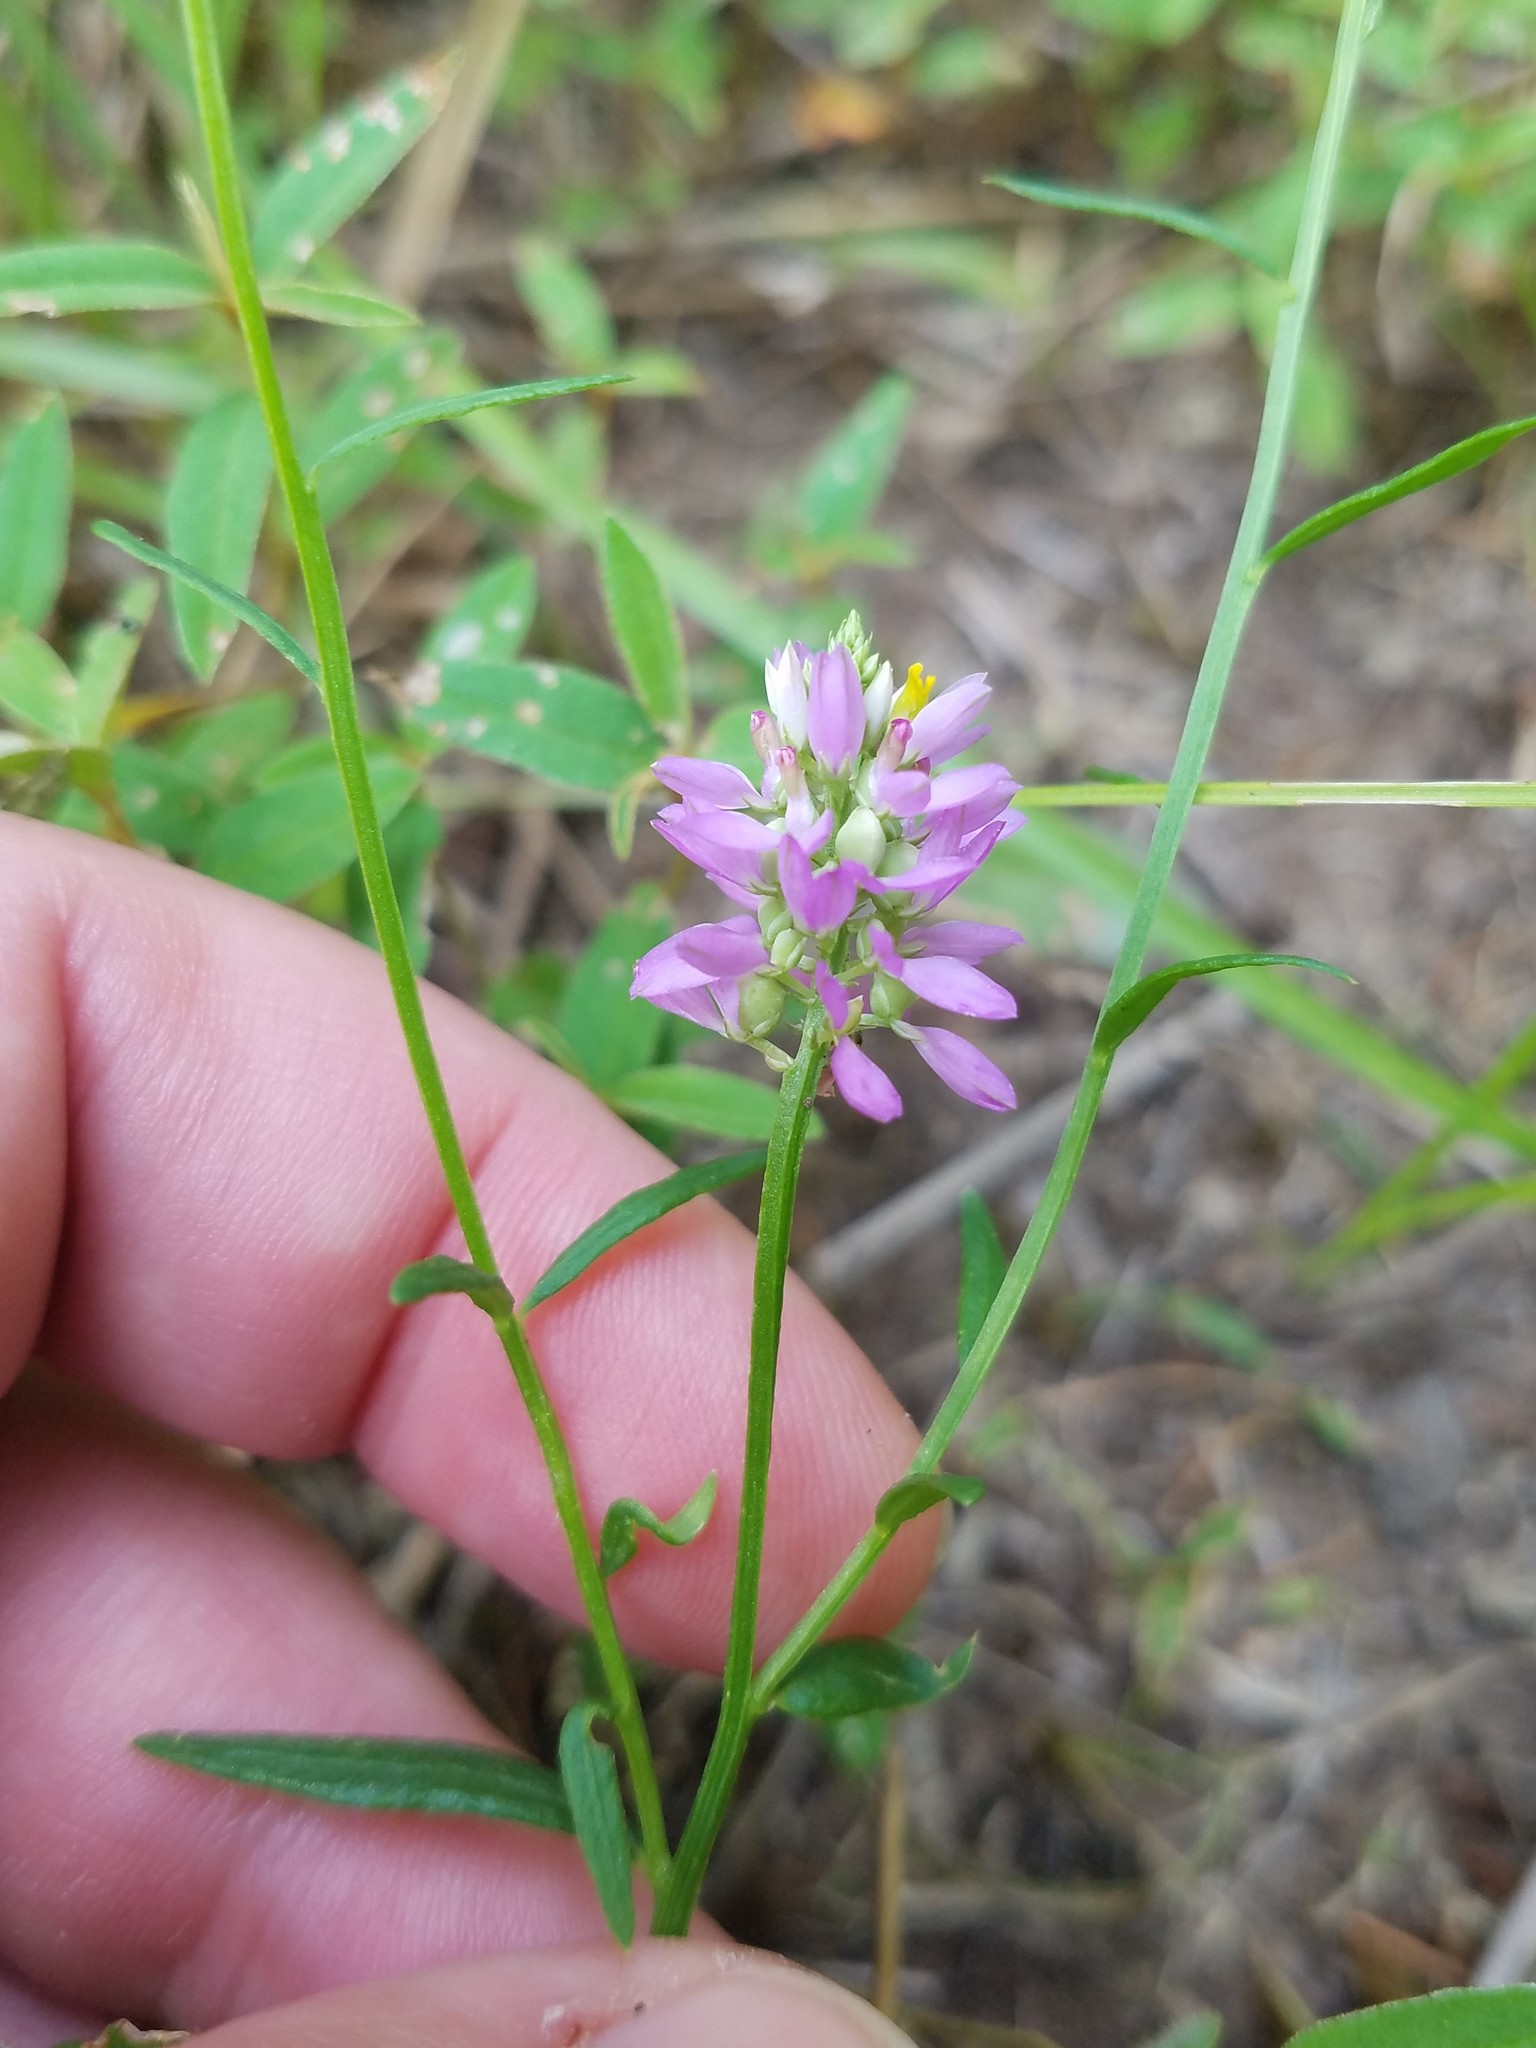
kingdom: Plantae
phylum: Tracheophyta
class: Magnoliopsida
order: Fabales
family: Polygalaceae
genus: Polygala
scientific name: Polygala curtissii
